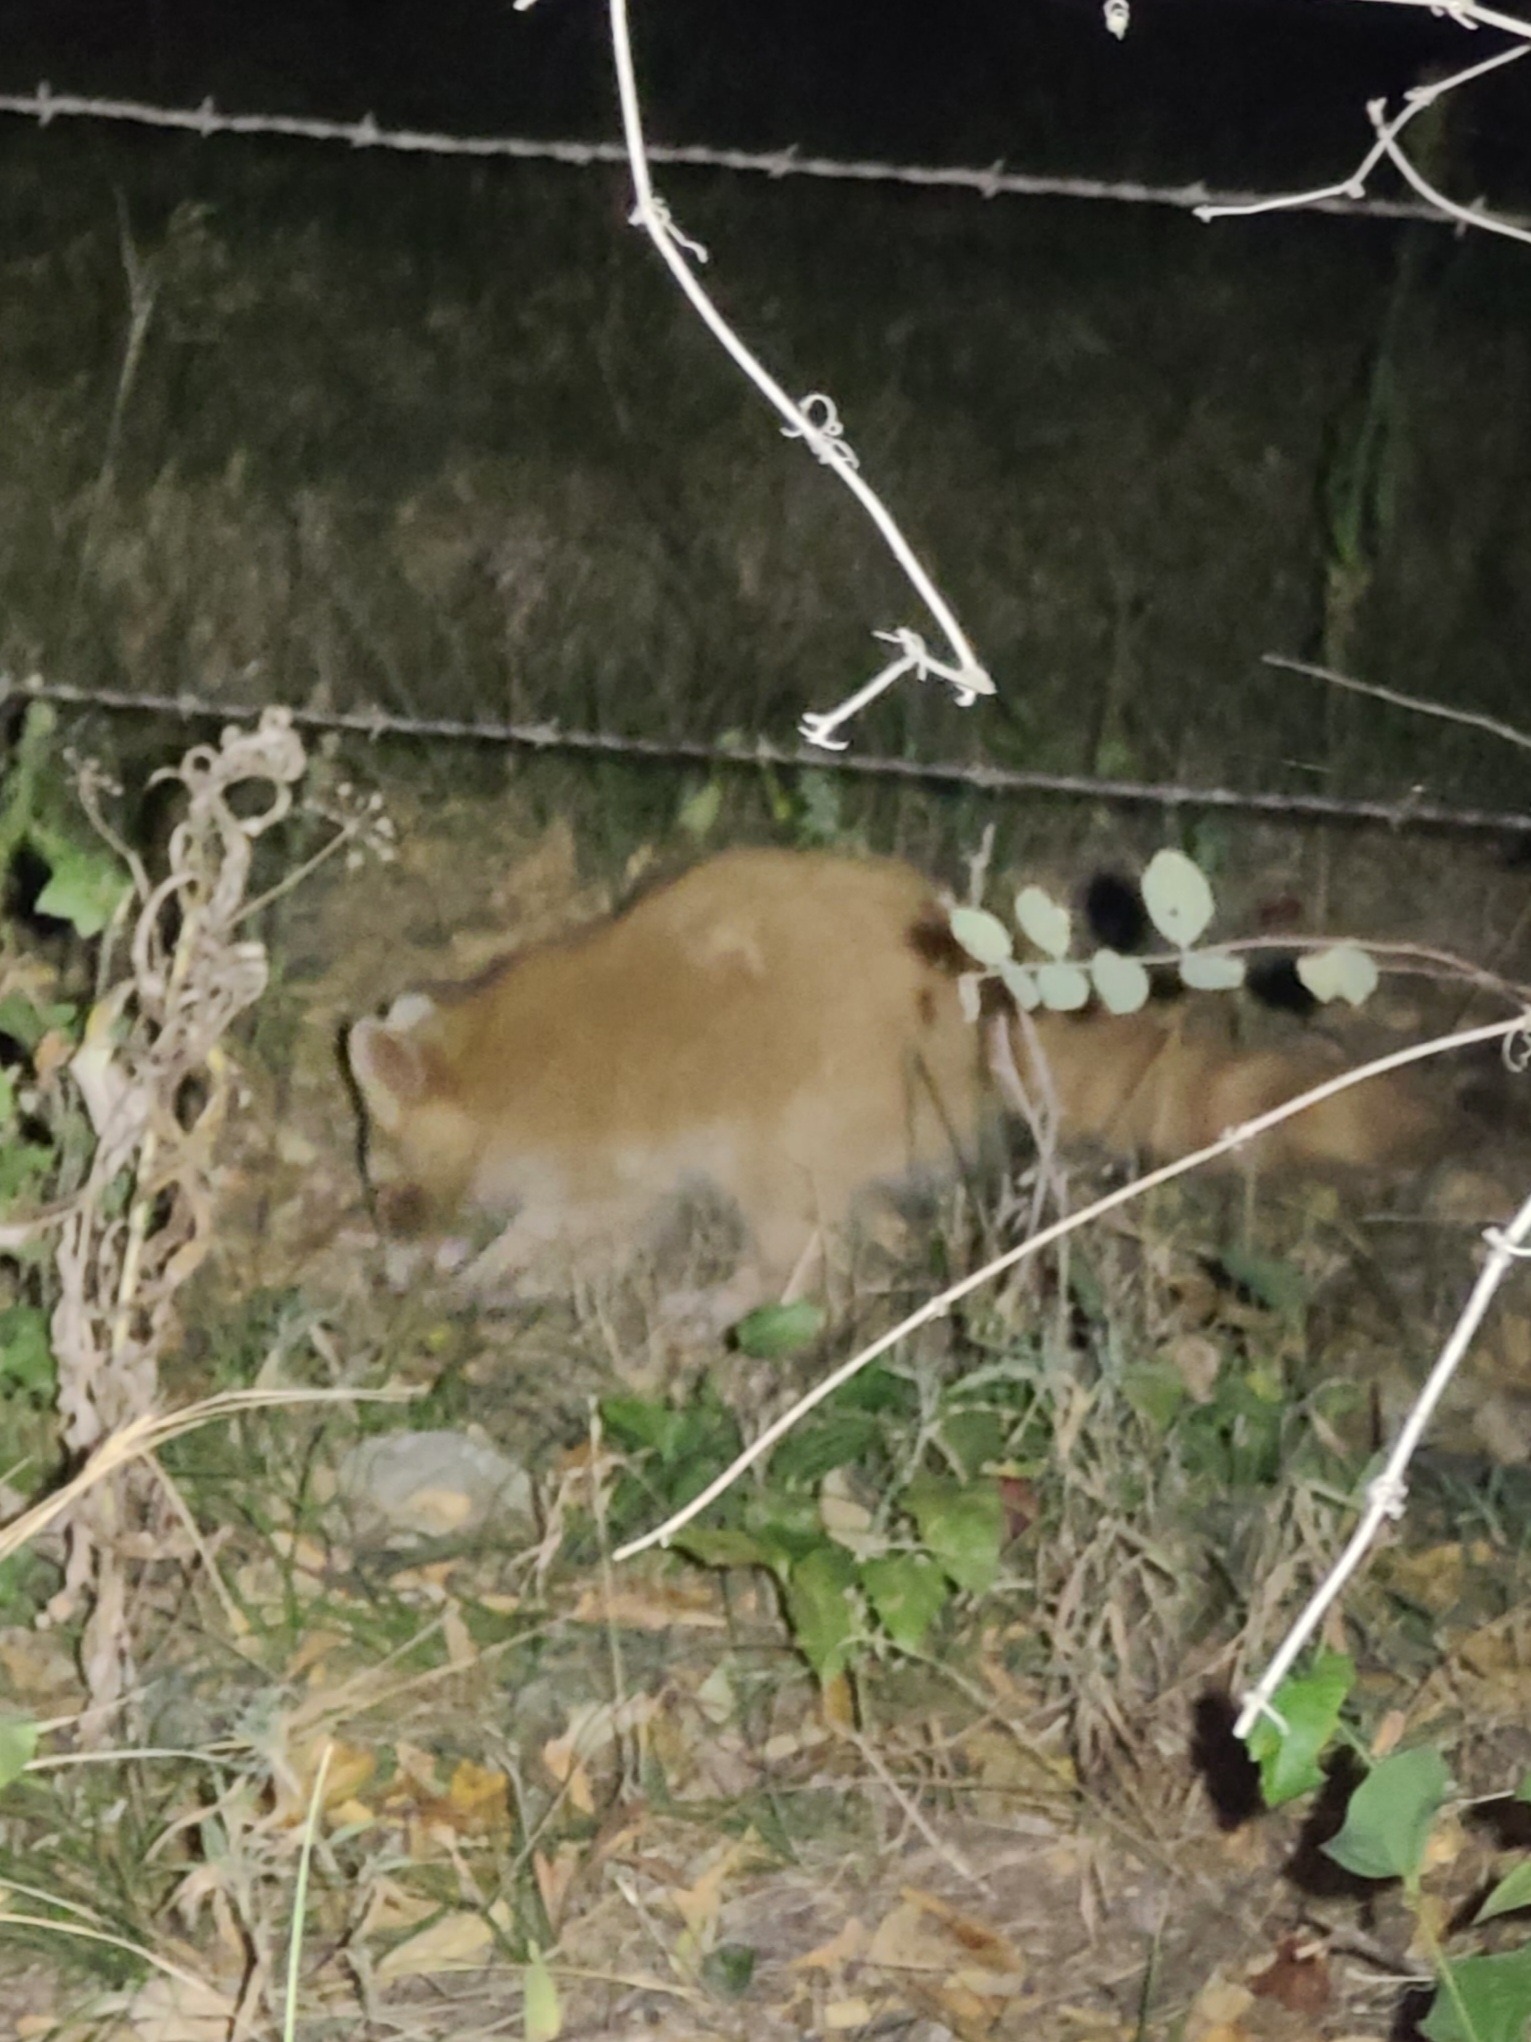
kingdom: Animalia
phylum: Chordata
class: Mammalia
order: Carnivora
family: Procyonidae
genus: Procyon
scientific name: Procyon lotor
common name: Raccoon
